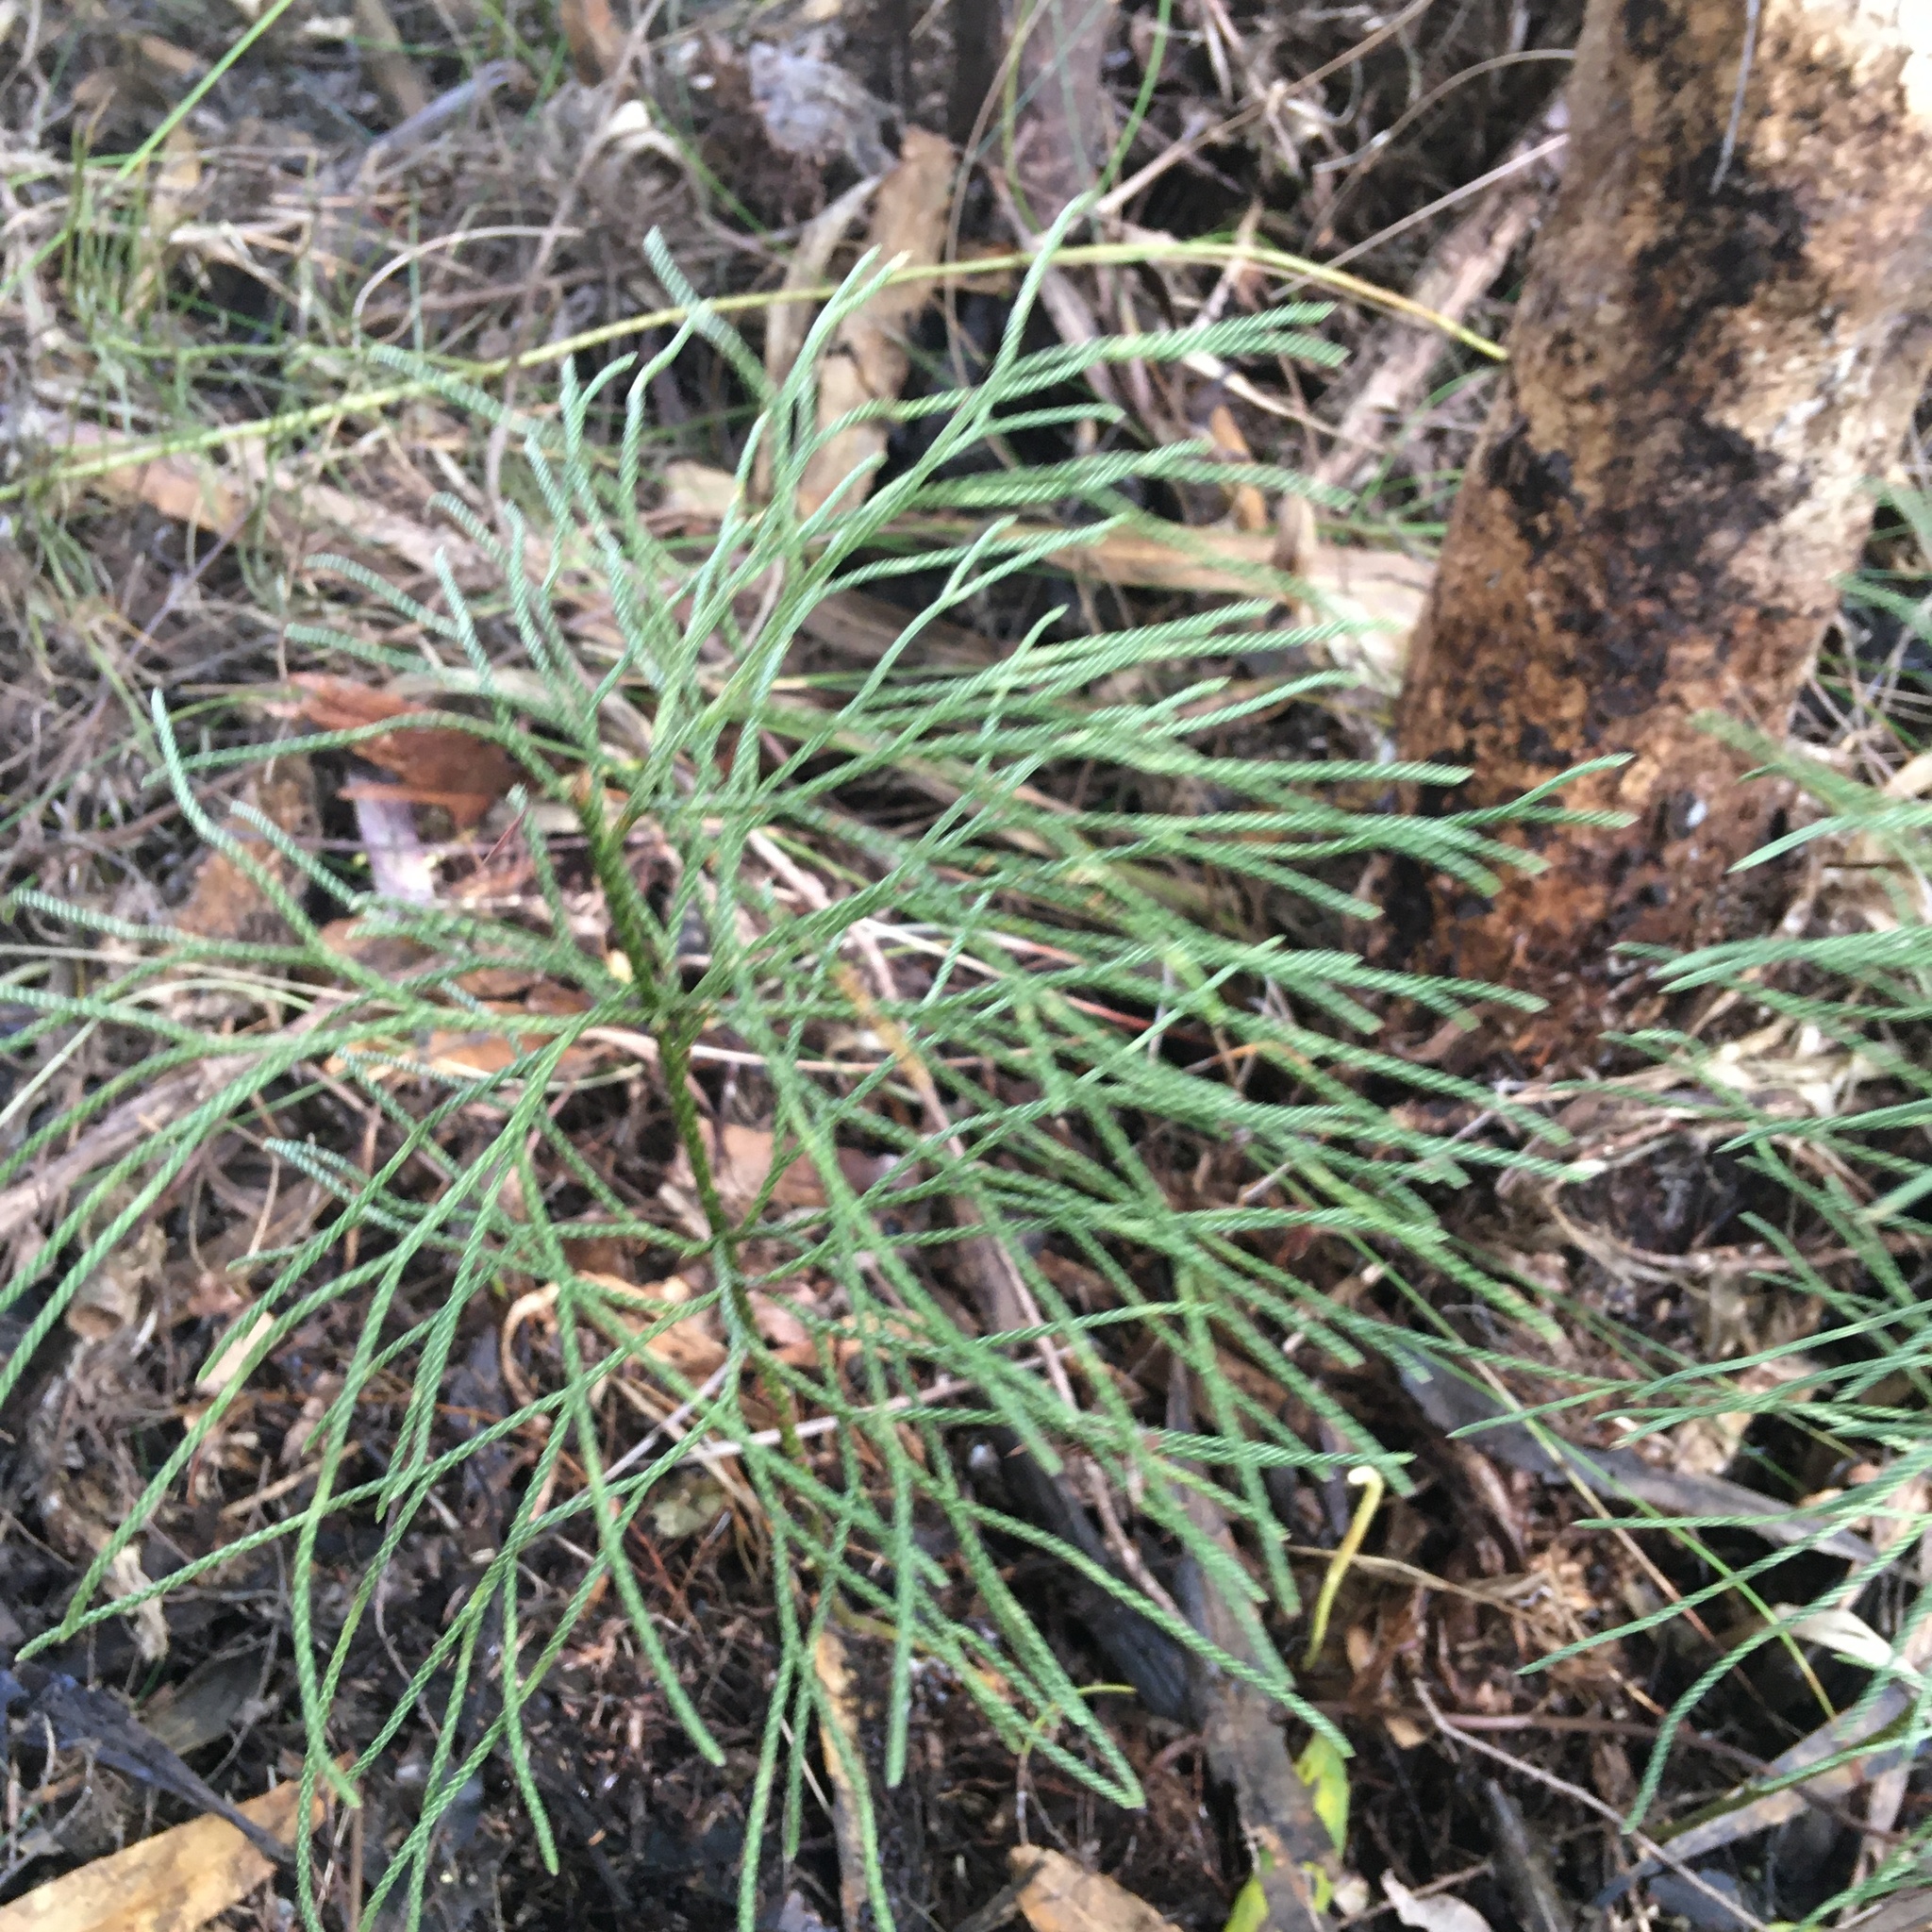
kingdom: Plantae
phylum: Tracheophyta
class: Lycopodiopsida
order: Lycopodiales
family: Lycopodiaceae
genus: Pseudolycopodium
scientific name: Pseudolycopodium densum
